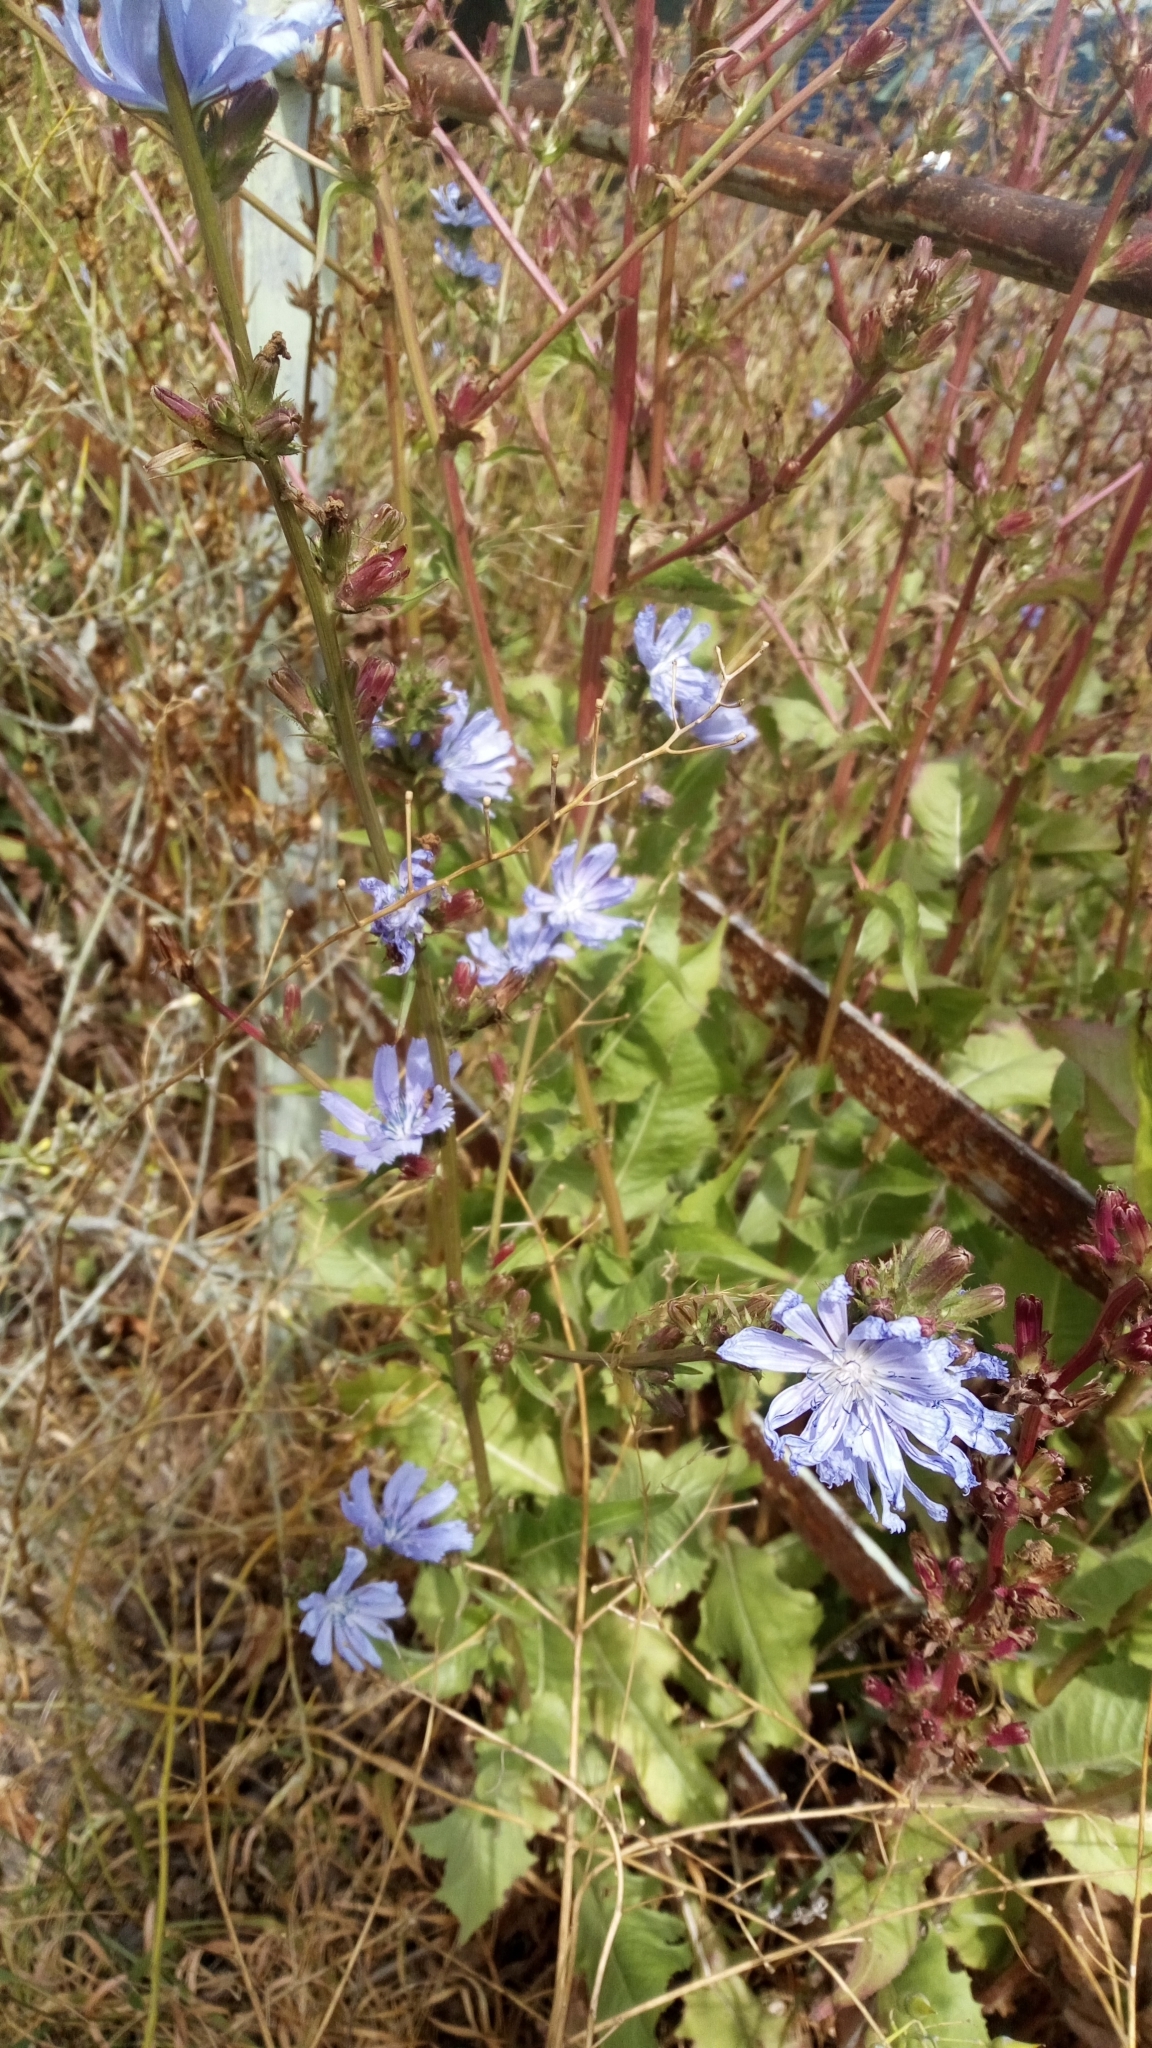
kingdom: Plantae
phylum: Tracheophyta
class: Magnoliopsida
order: Asterales
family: Asteraceae
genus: Cichorium
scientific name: Cichorium intybus
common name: Chicory
